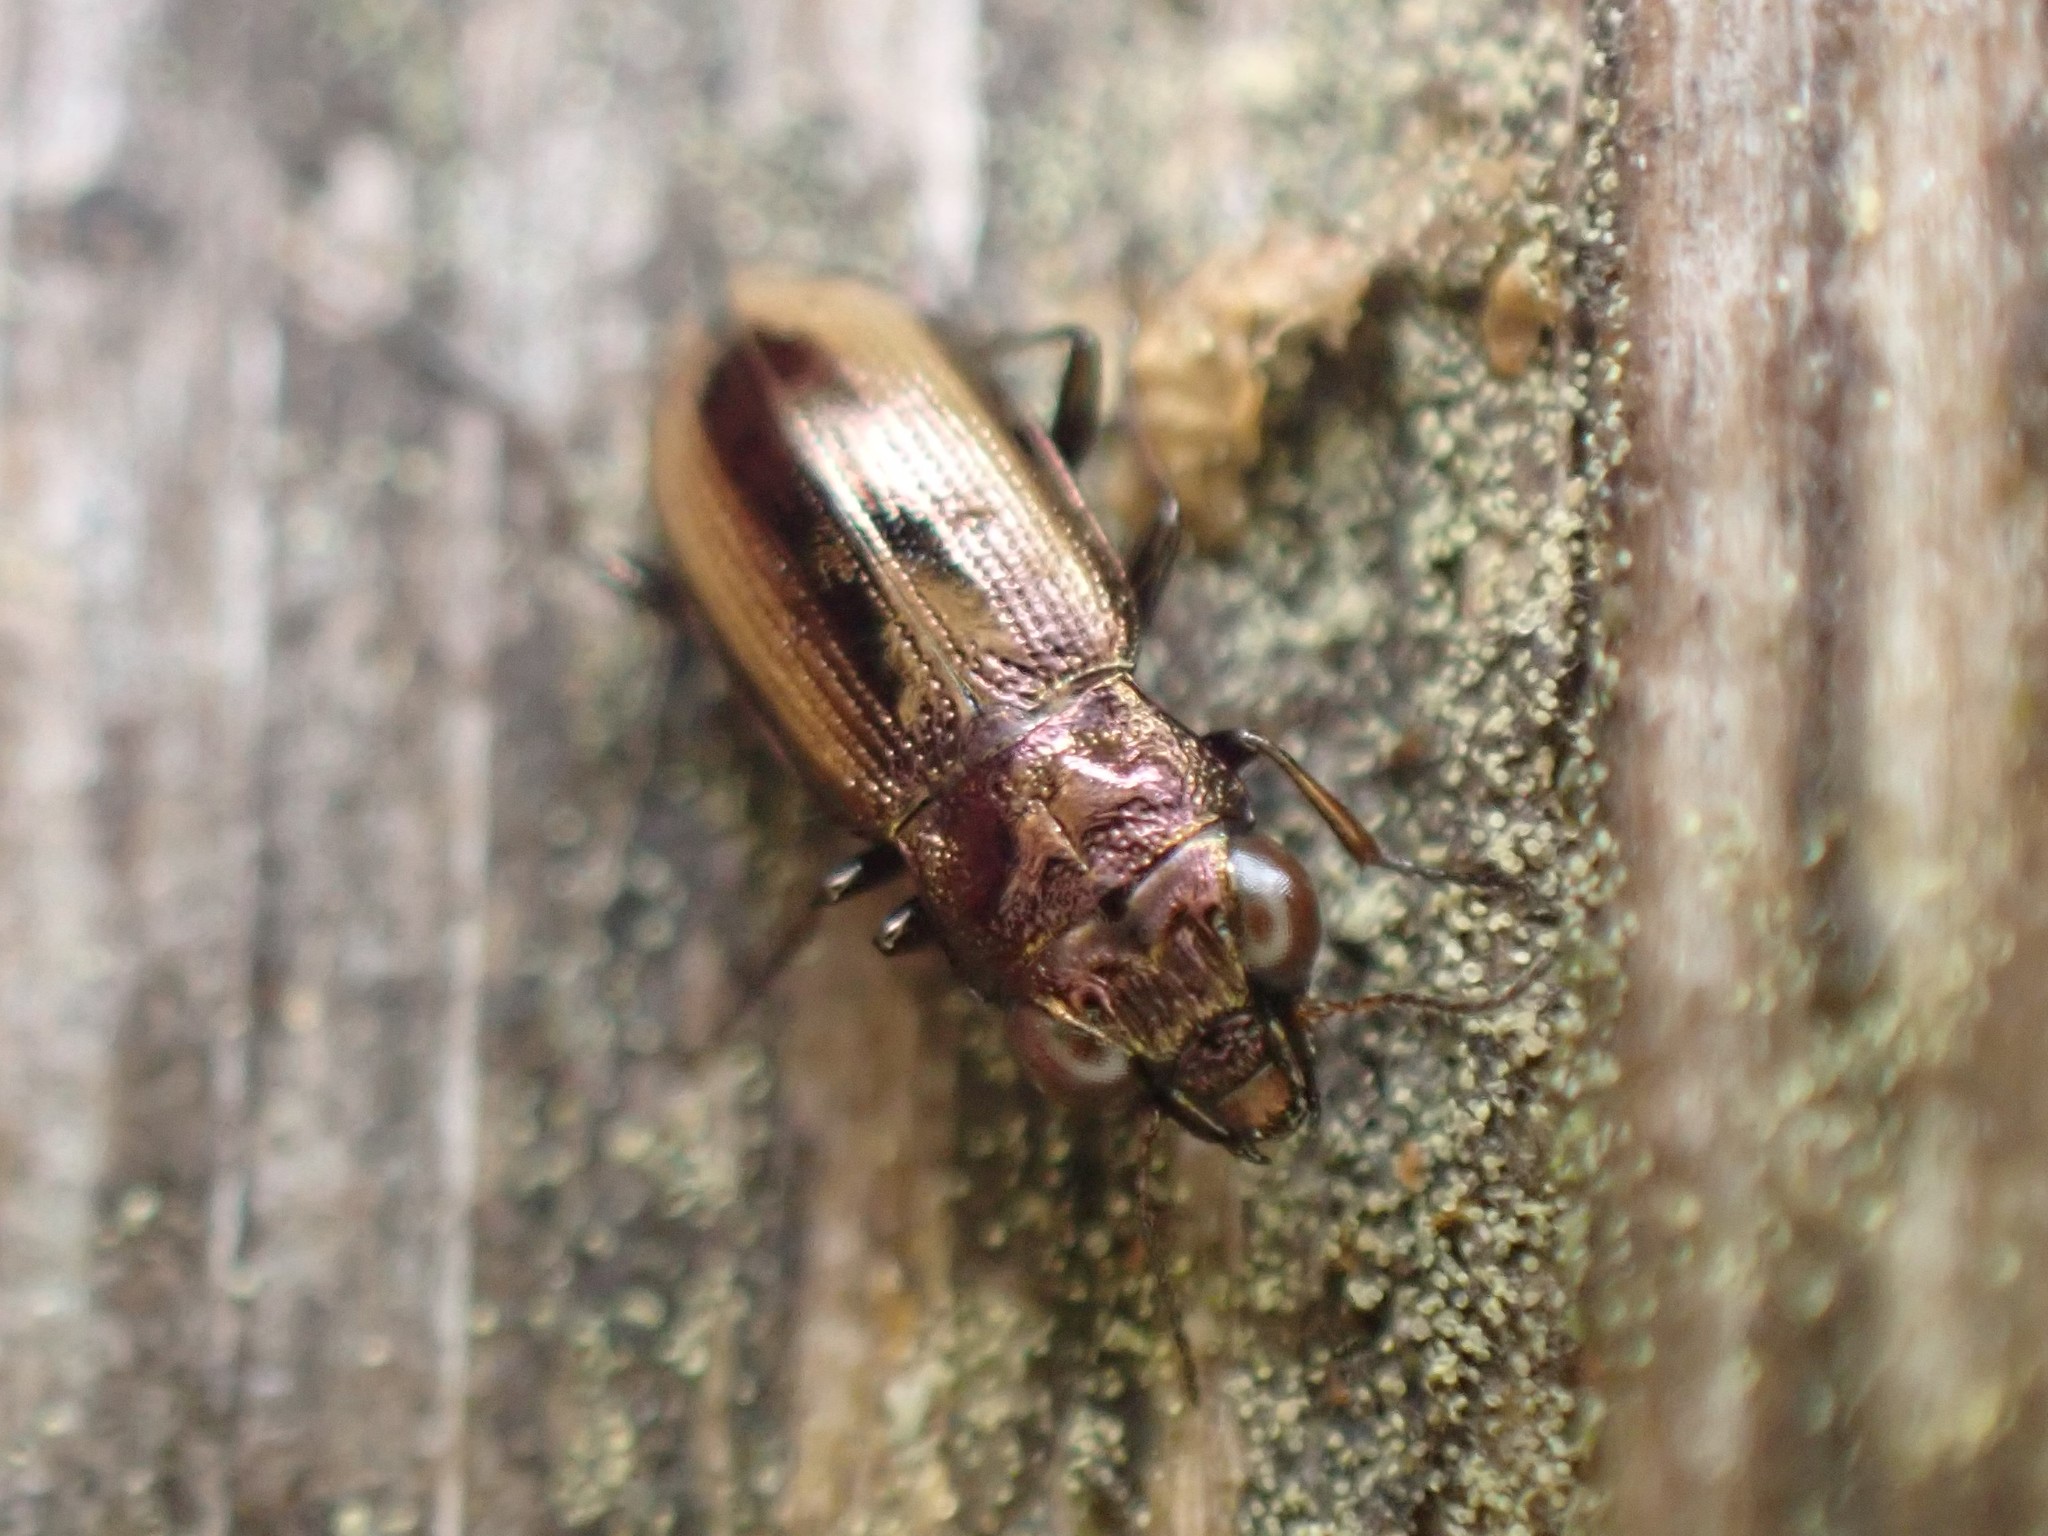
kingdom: Animalia
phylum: Arthropoda
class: Insecta
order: Coleoptera
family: Carabidae
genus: Notiophilus
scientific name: Notiophilus sylvaticus
